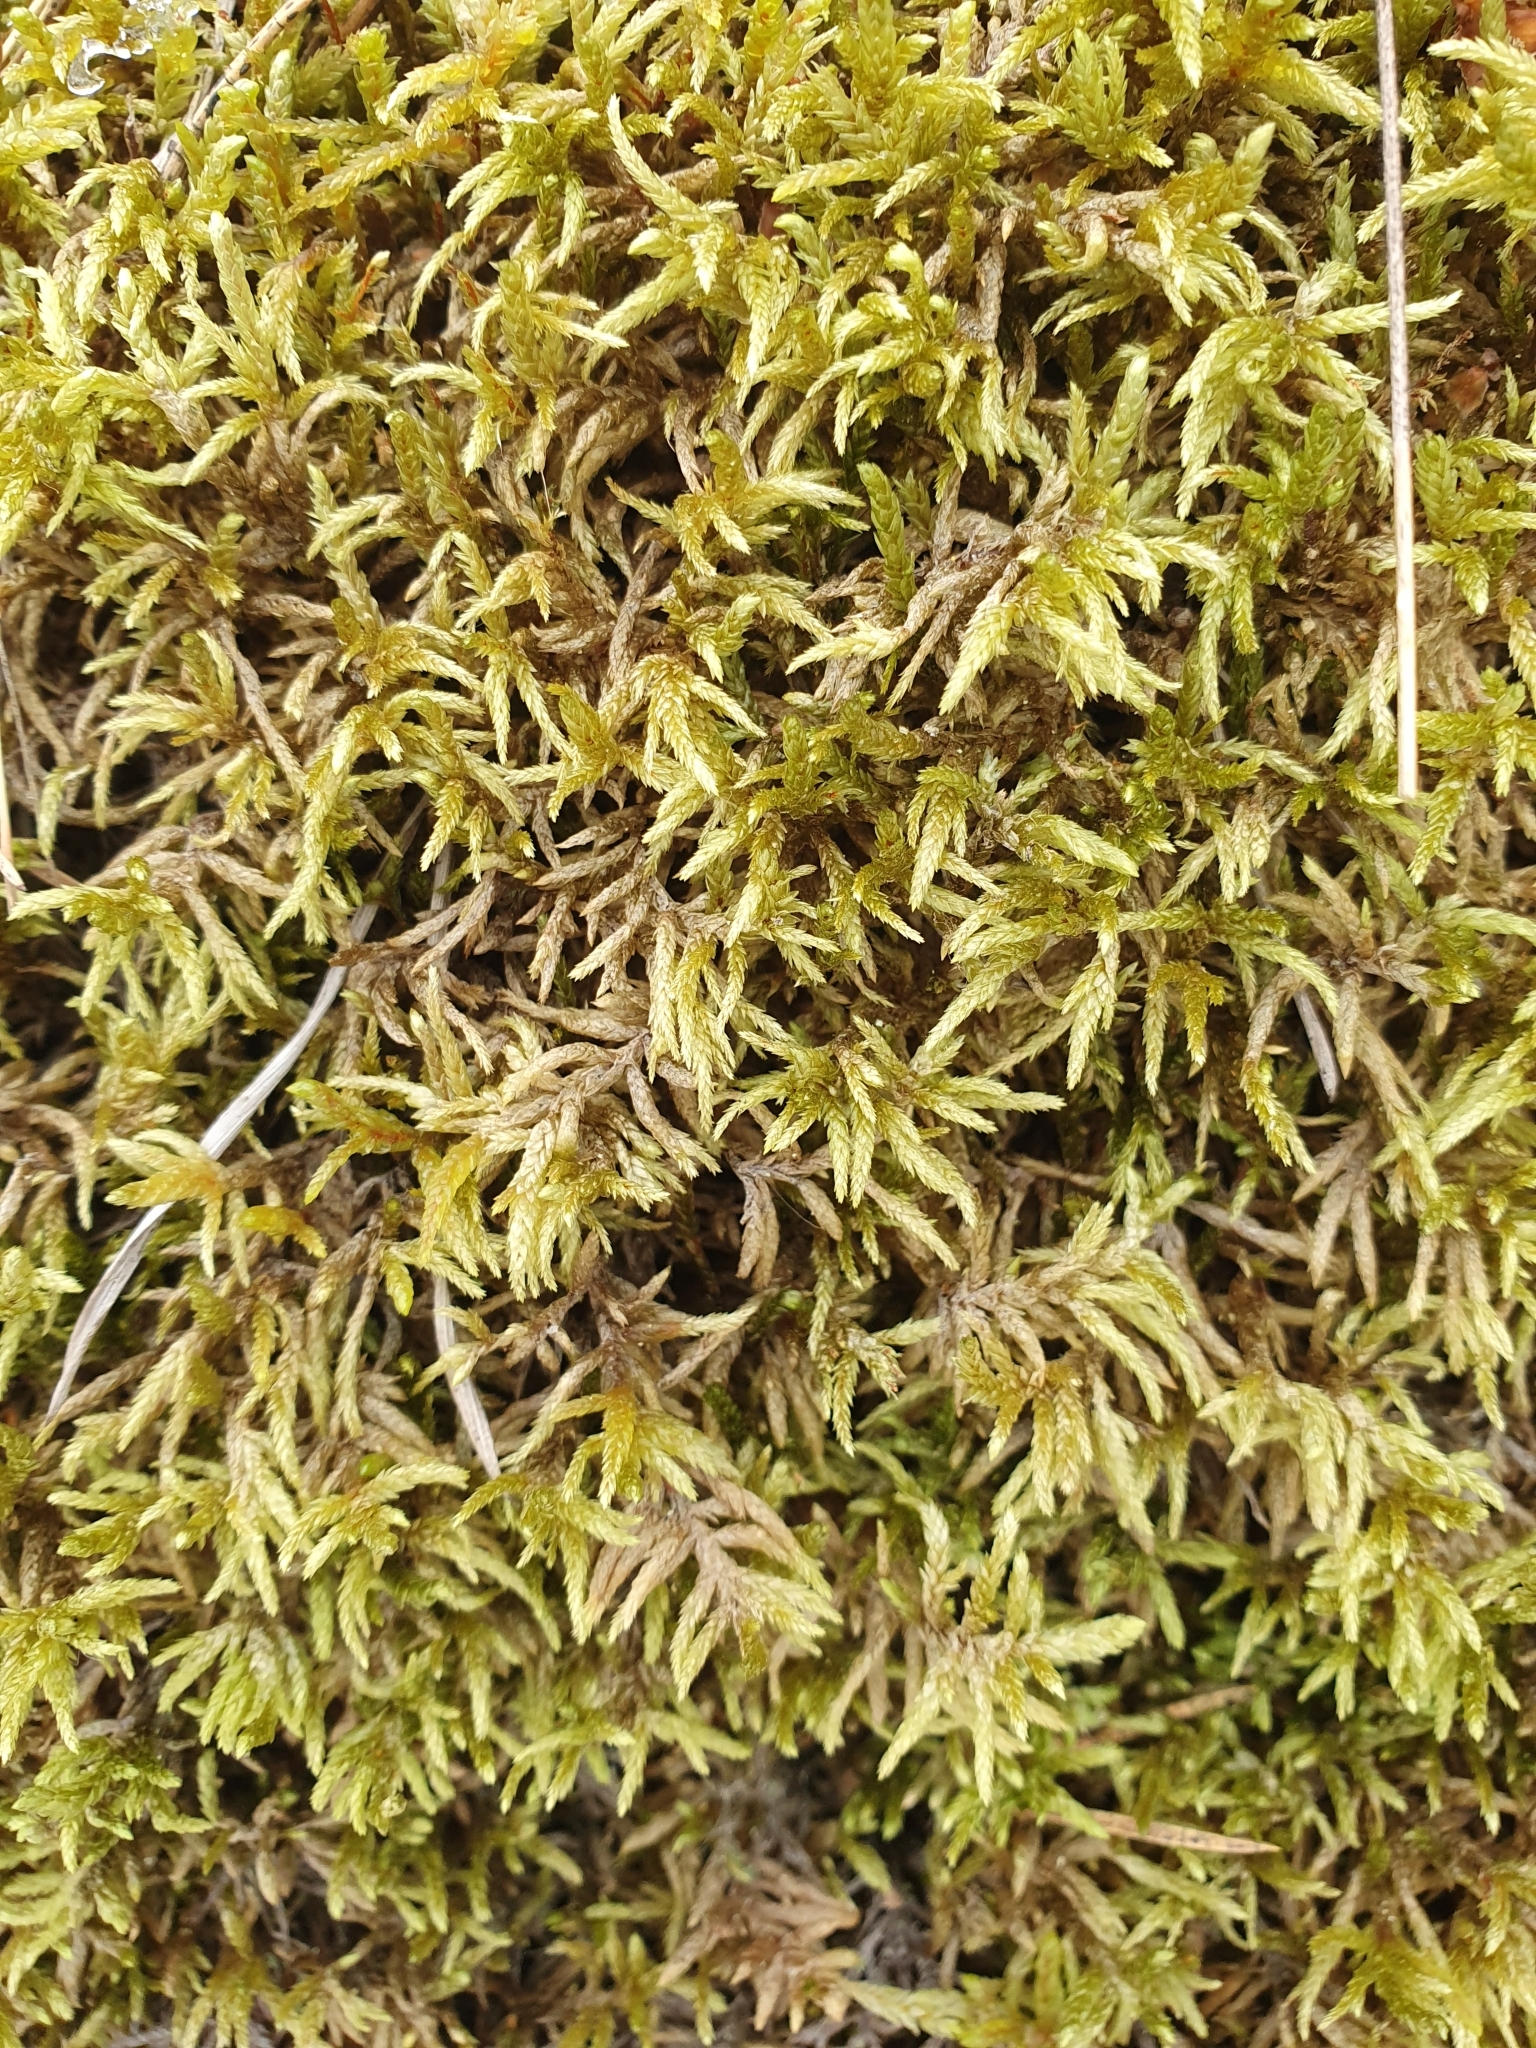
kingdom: Plantae
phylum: Bryophyta
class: Bryopsida
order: Hypnales
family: Hylocomiaceae
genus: Pleurozium
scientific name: Pleurozium schreberi
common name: Red-stemmed feather moss
